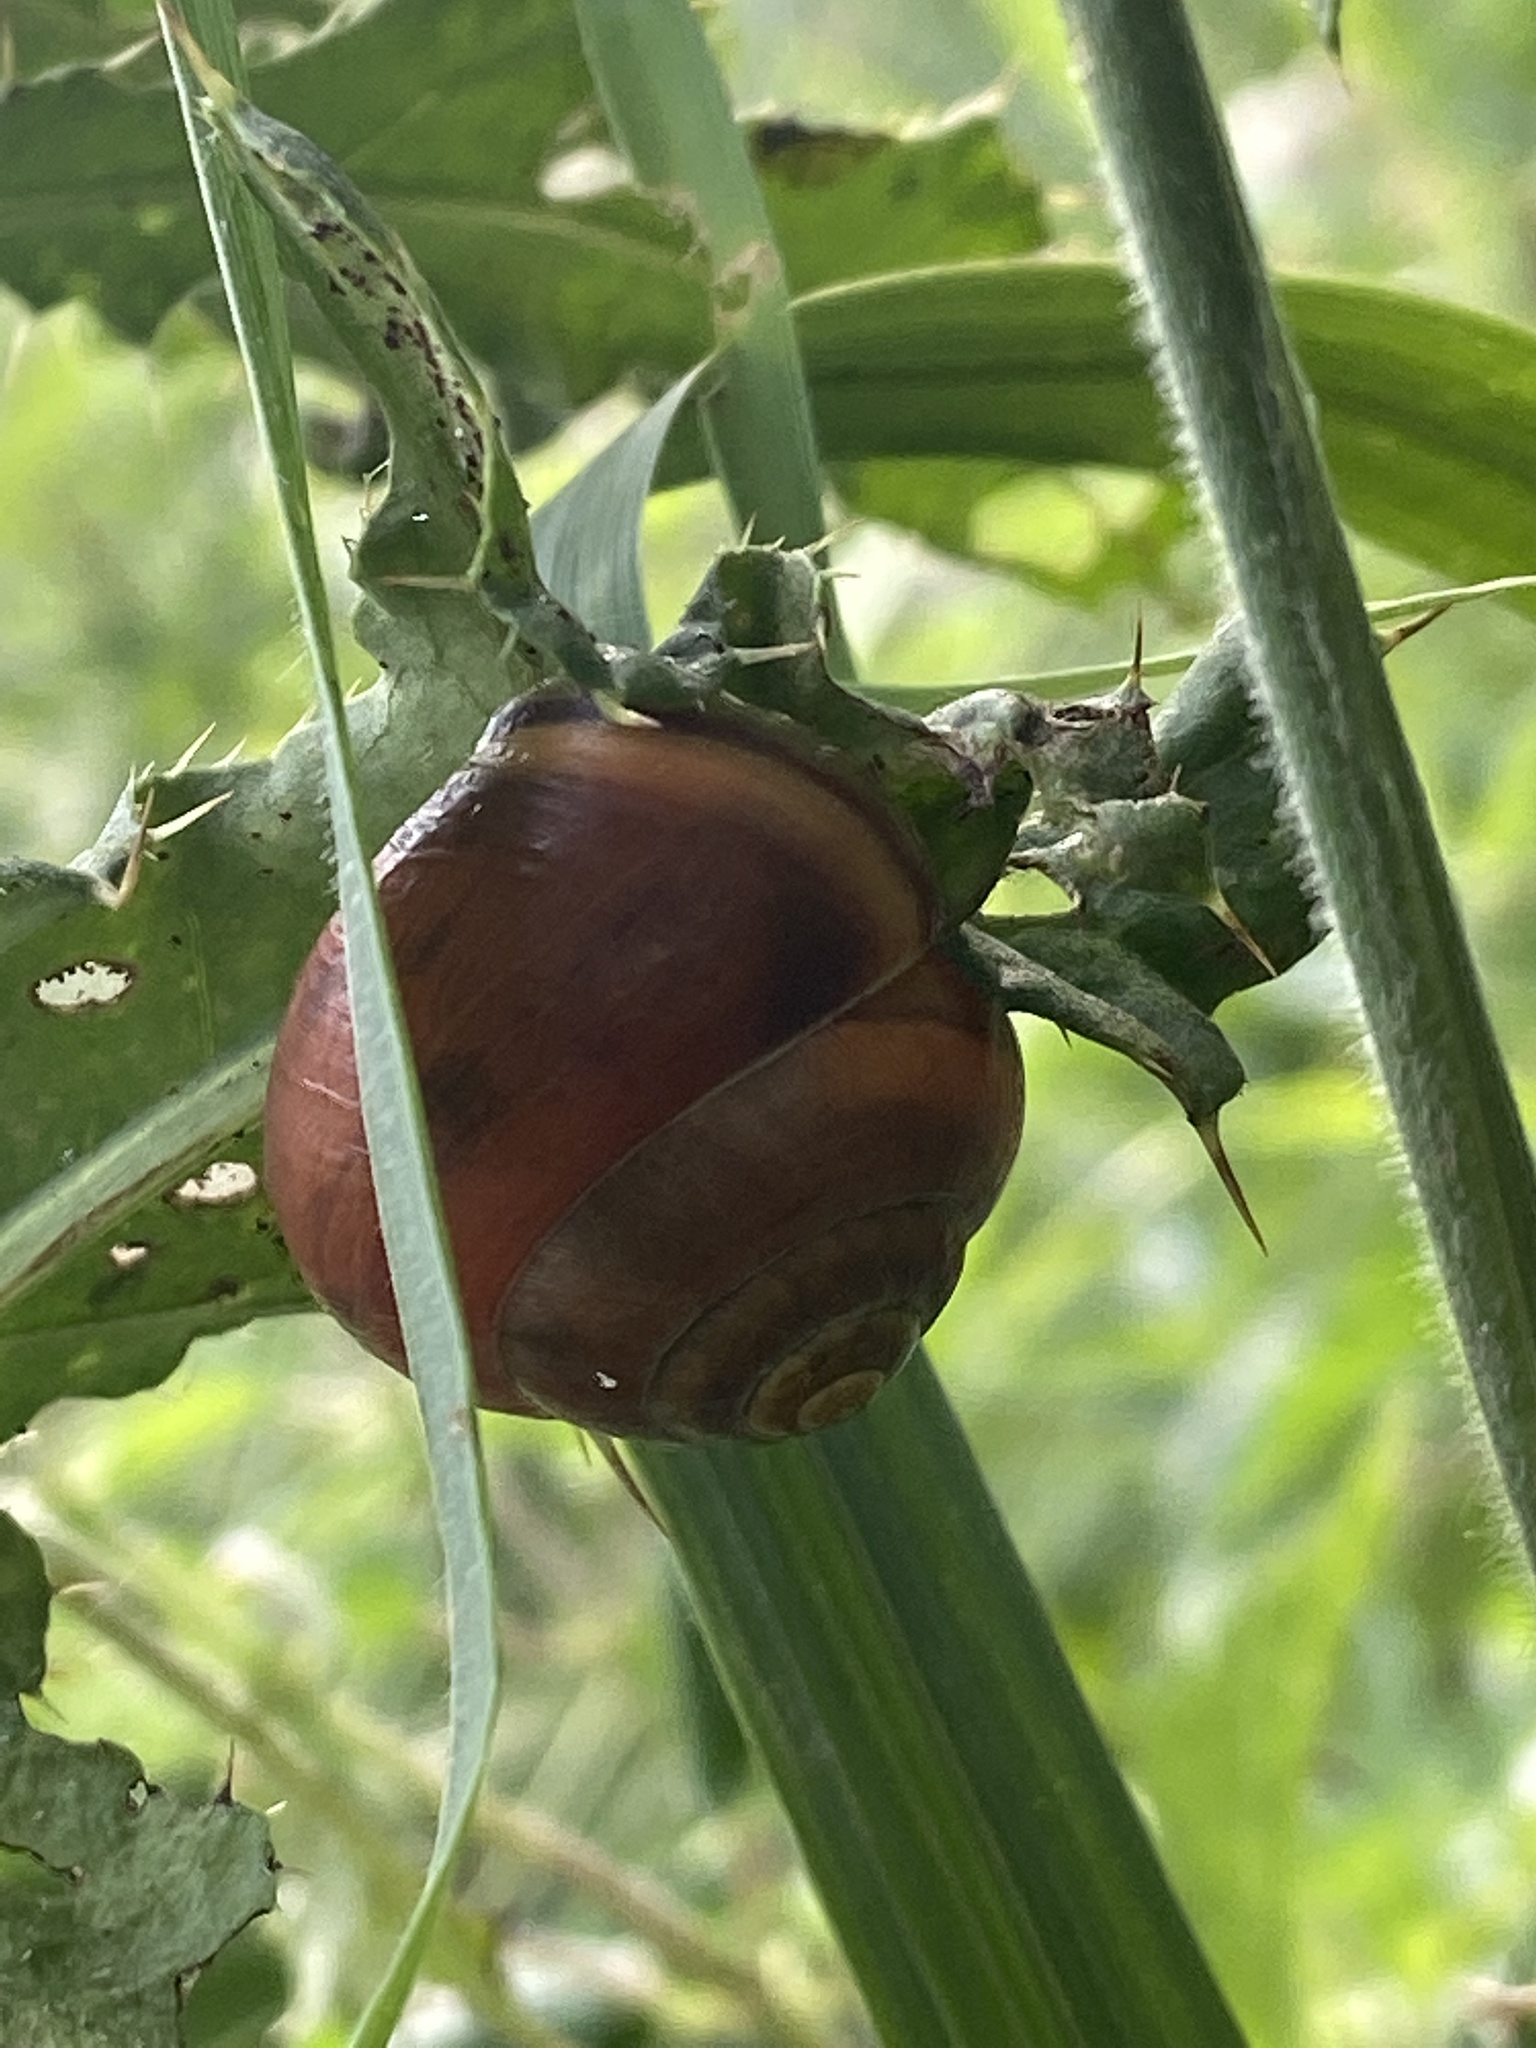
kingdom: Animalia
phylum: Mollusca
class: Gastropoda
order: Stylommatophora
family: Helicidae
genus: Cepaea
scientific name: Cepaea nemoralis
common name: Grovesnail
